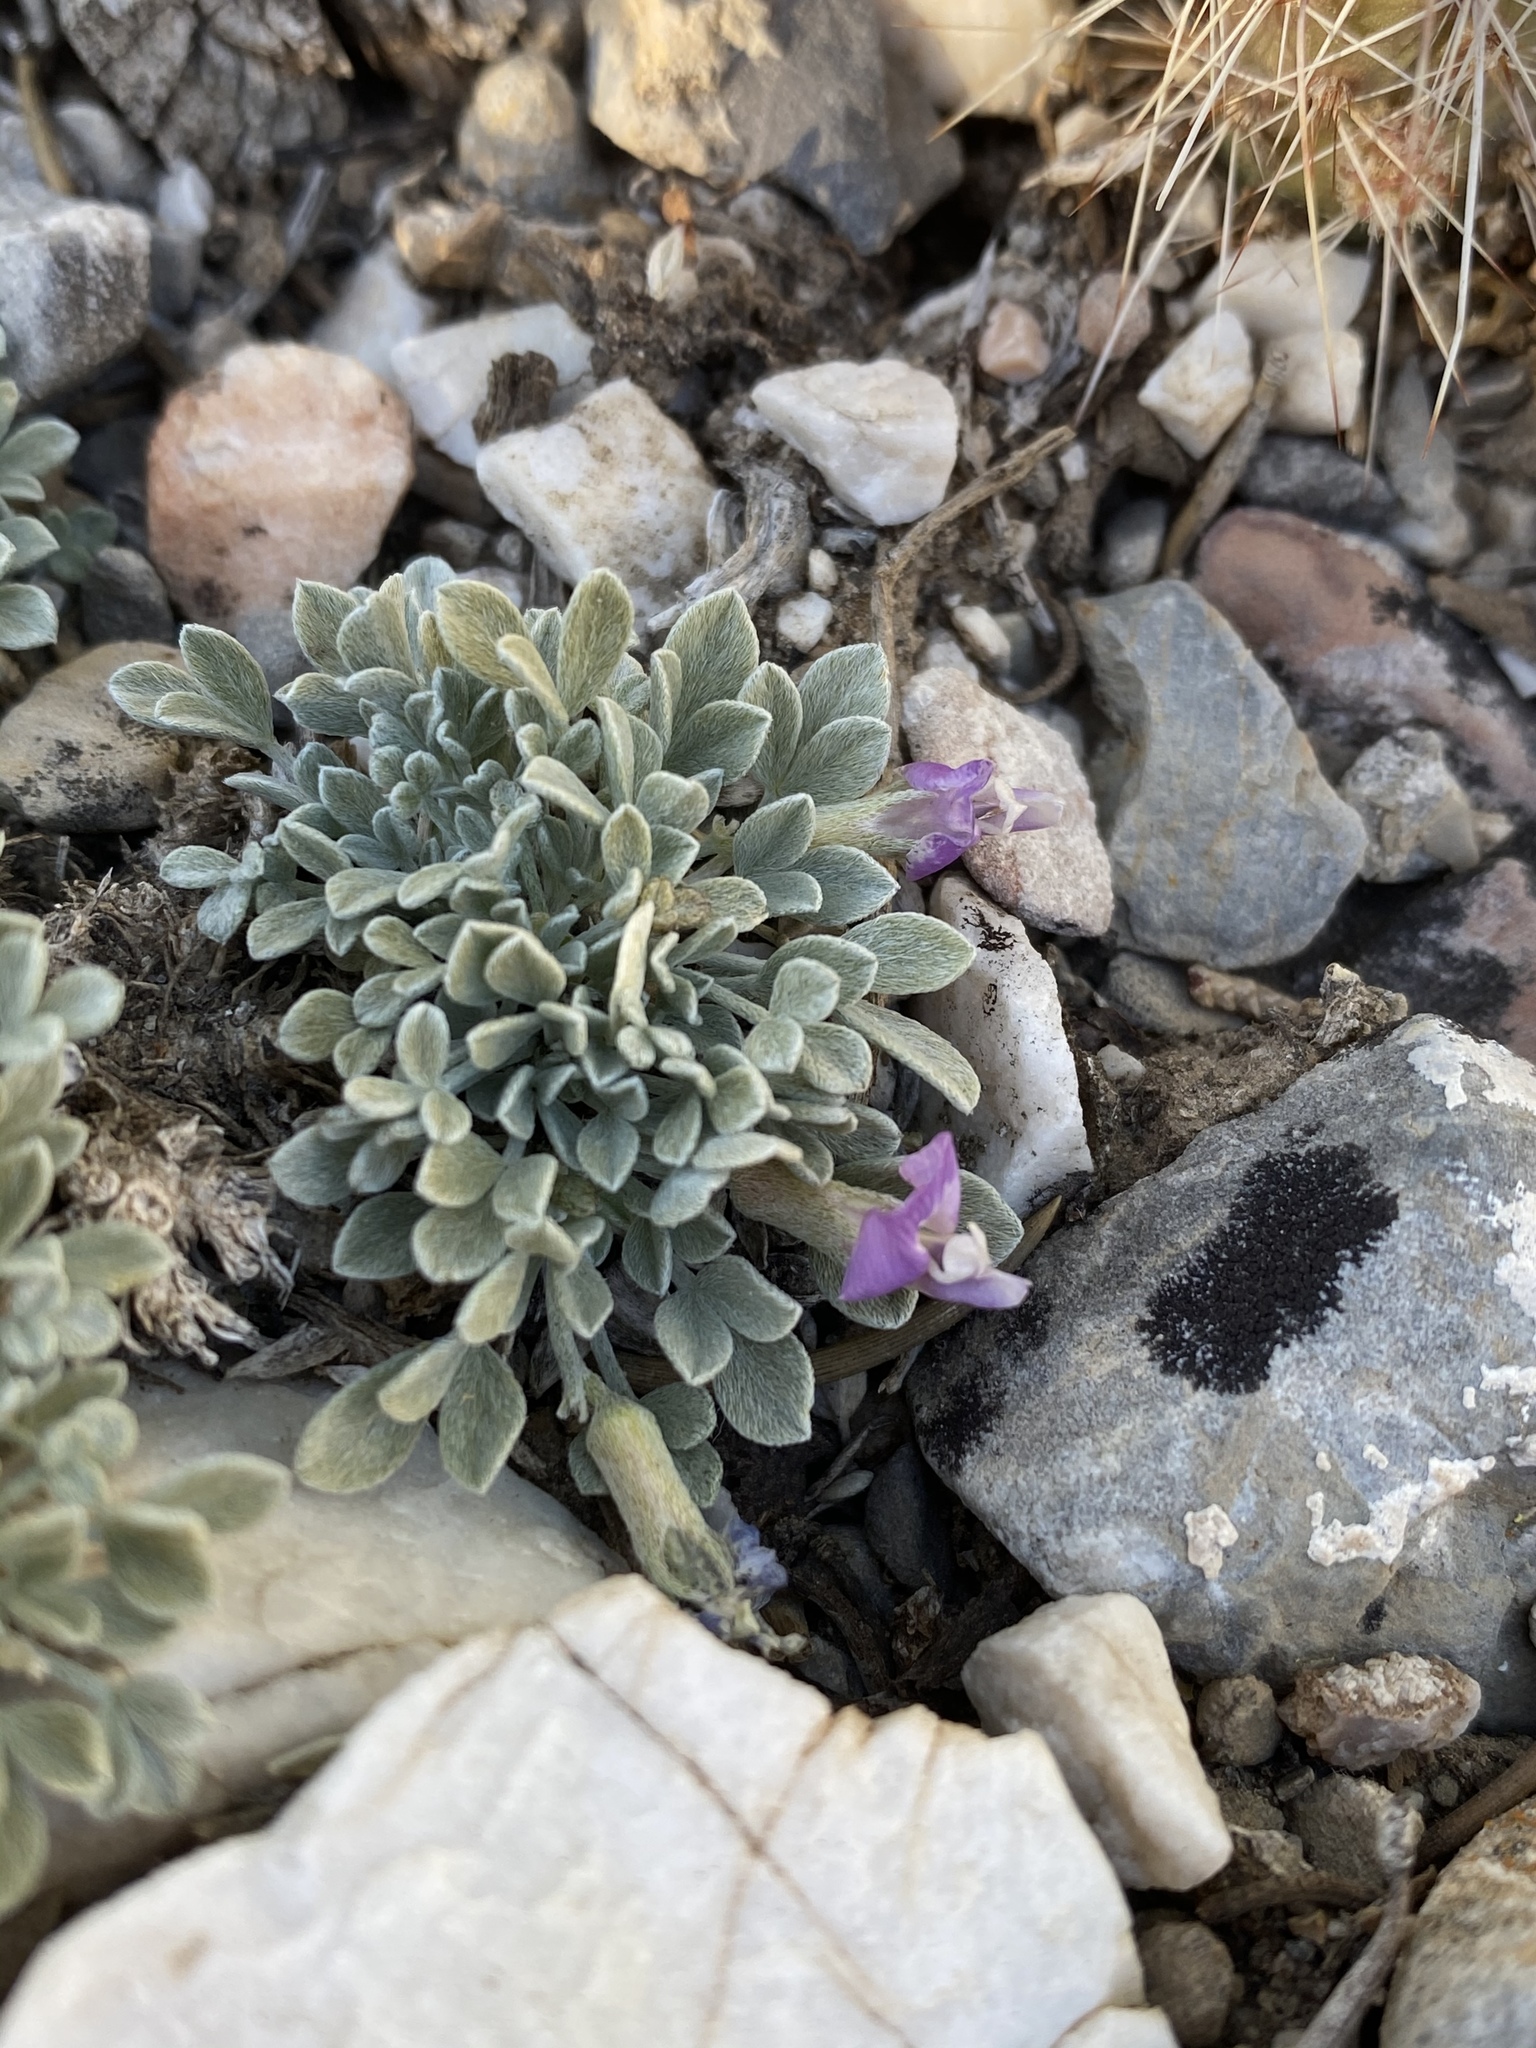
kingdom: Plantae
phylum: Tracheophyta
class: Magnoliopsida
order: Fabales
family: Fabaceae
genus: Astragalus
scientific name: Astragalus calycosus
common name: King's milkvetch
